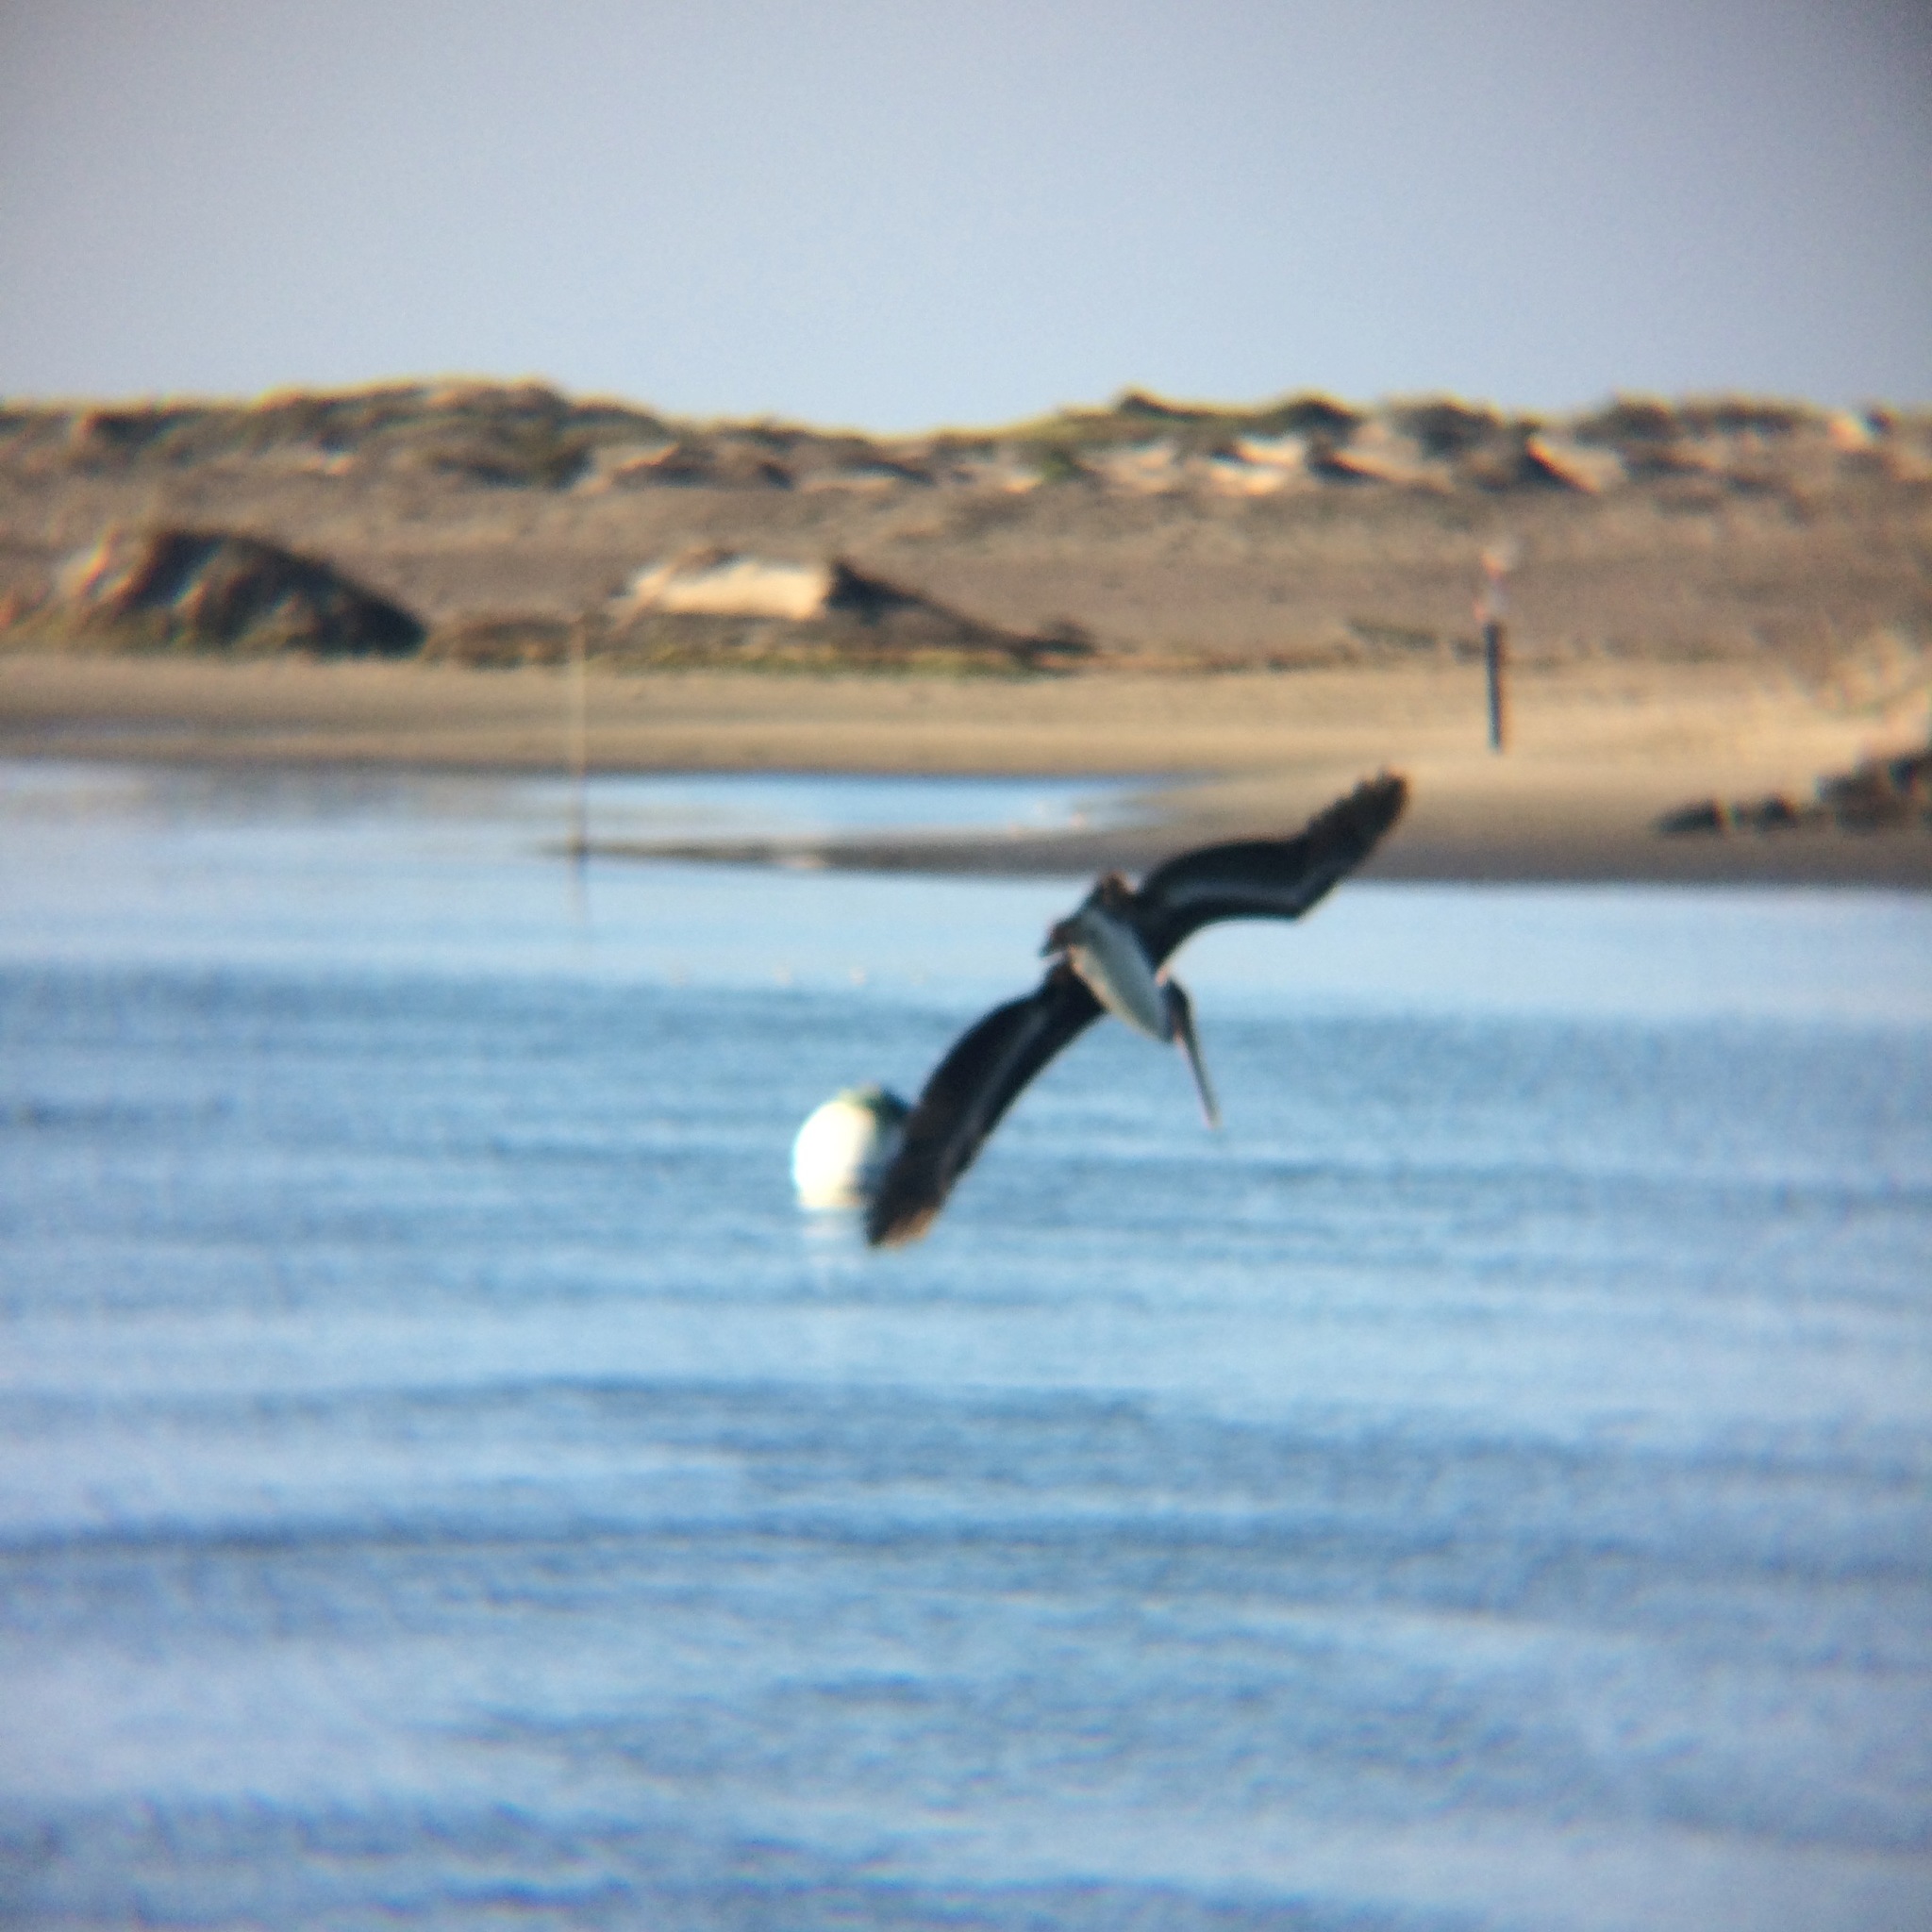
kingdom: Animalia
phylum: Chordata
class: Aves
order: Pelecaniformes
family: Pelecanidae
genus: Pelecanus
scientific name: Pelecanus occidentalis
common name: Brown pelican
